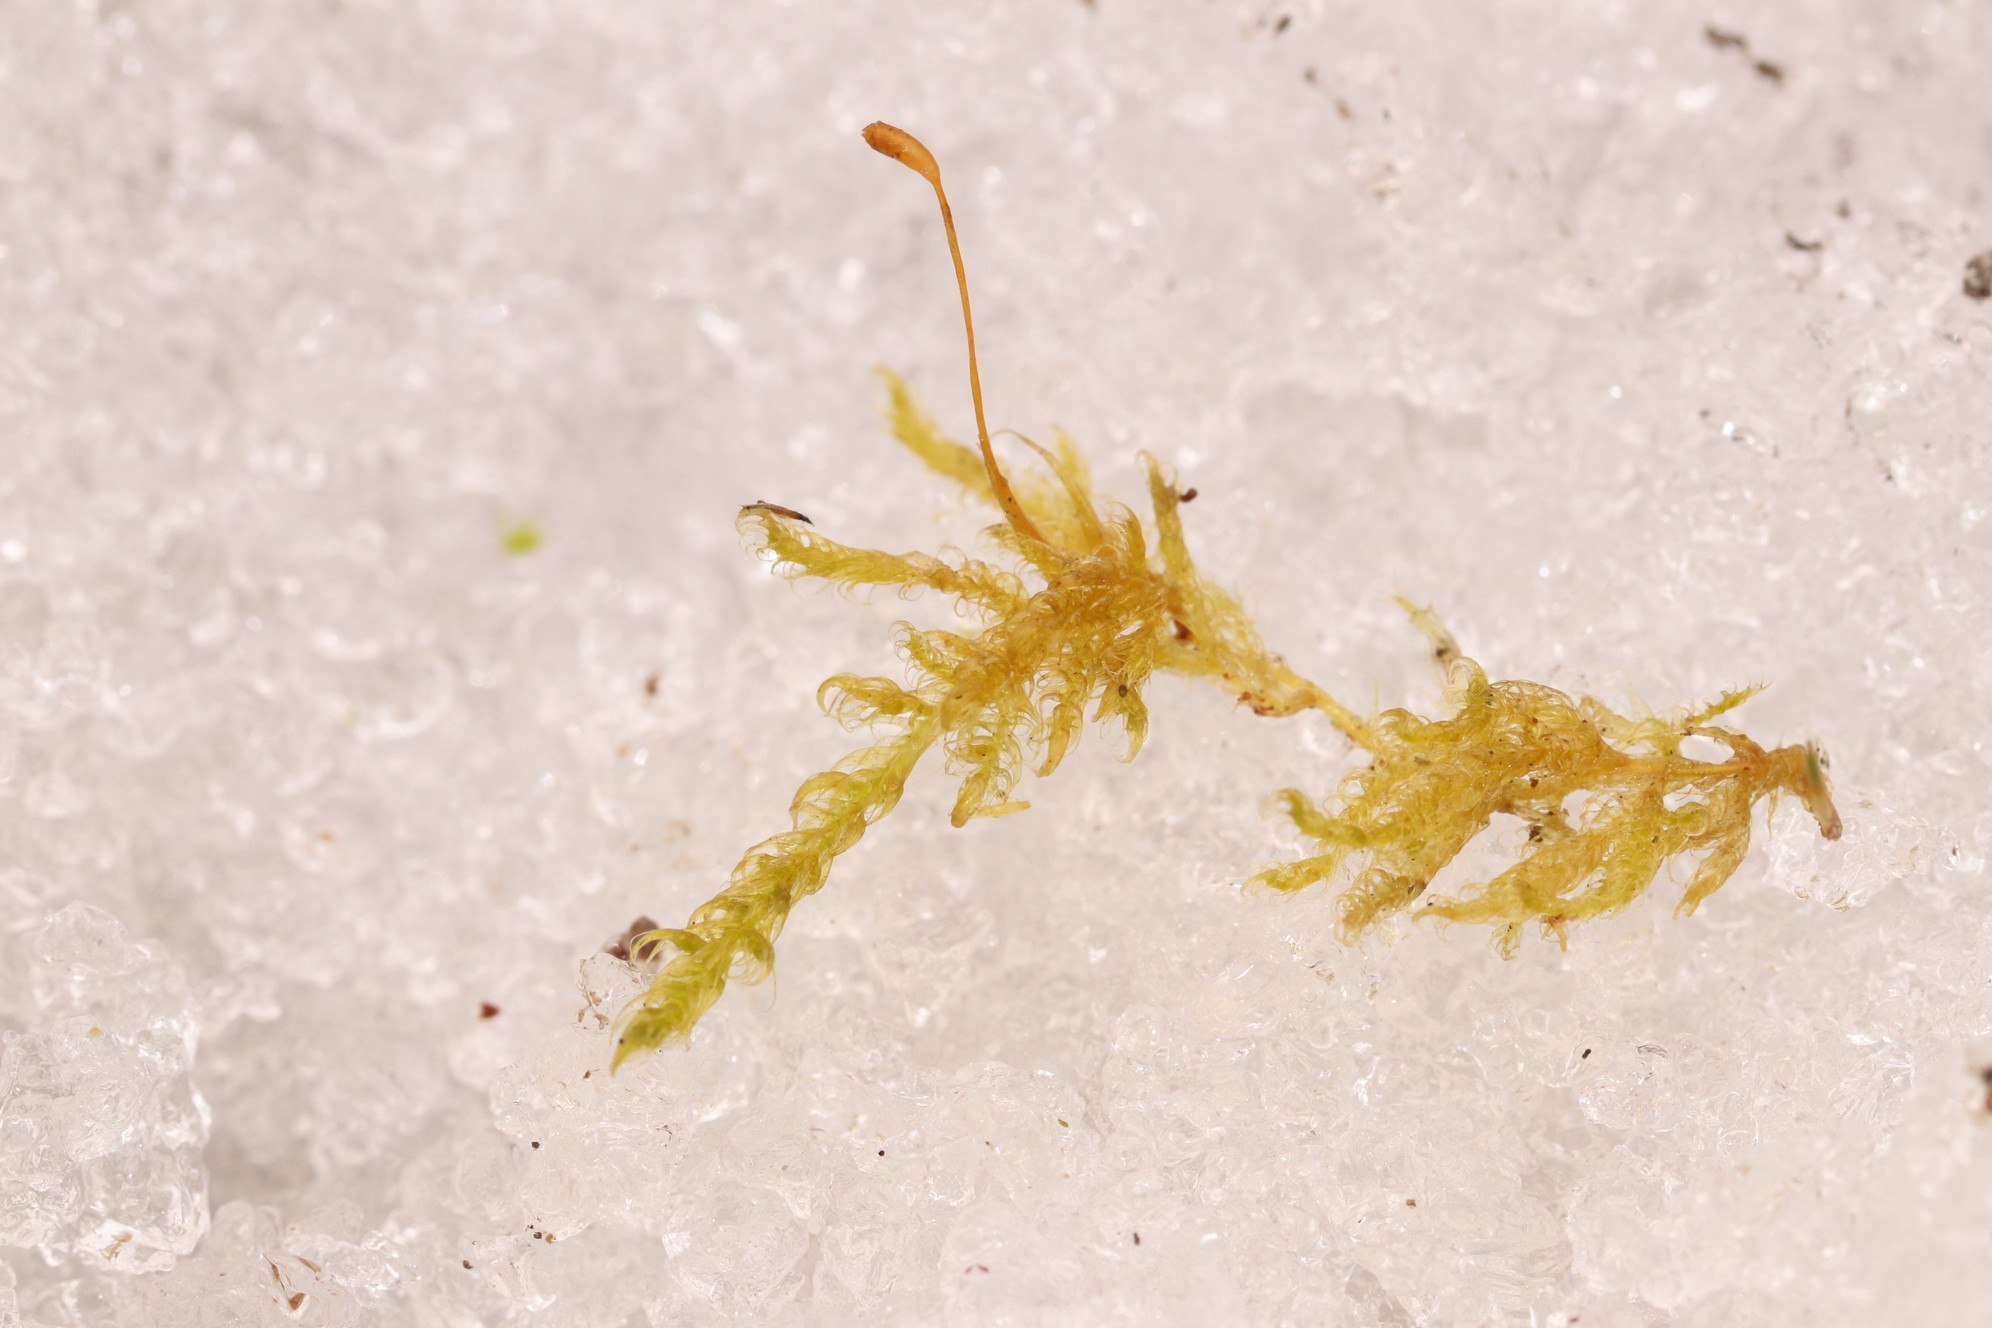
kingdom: Plantae
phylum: Bryophyta
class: Bryopsida
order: Hypnales
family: Scorpidiaceae
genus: Sanionia
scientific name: Sanionia uncinata
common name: Sickle moss
